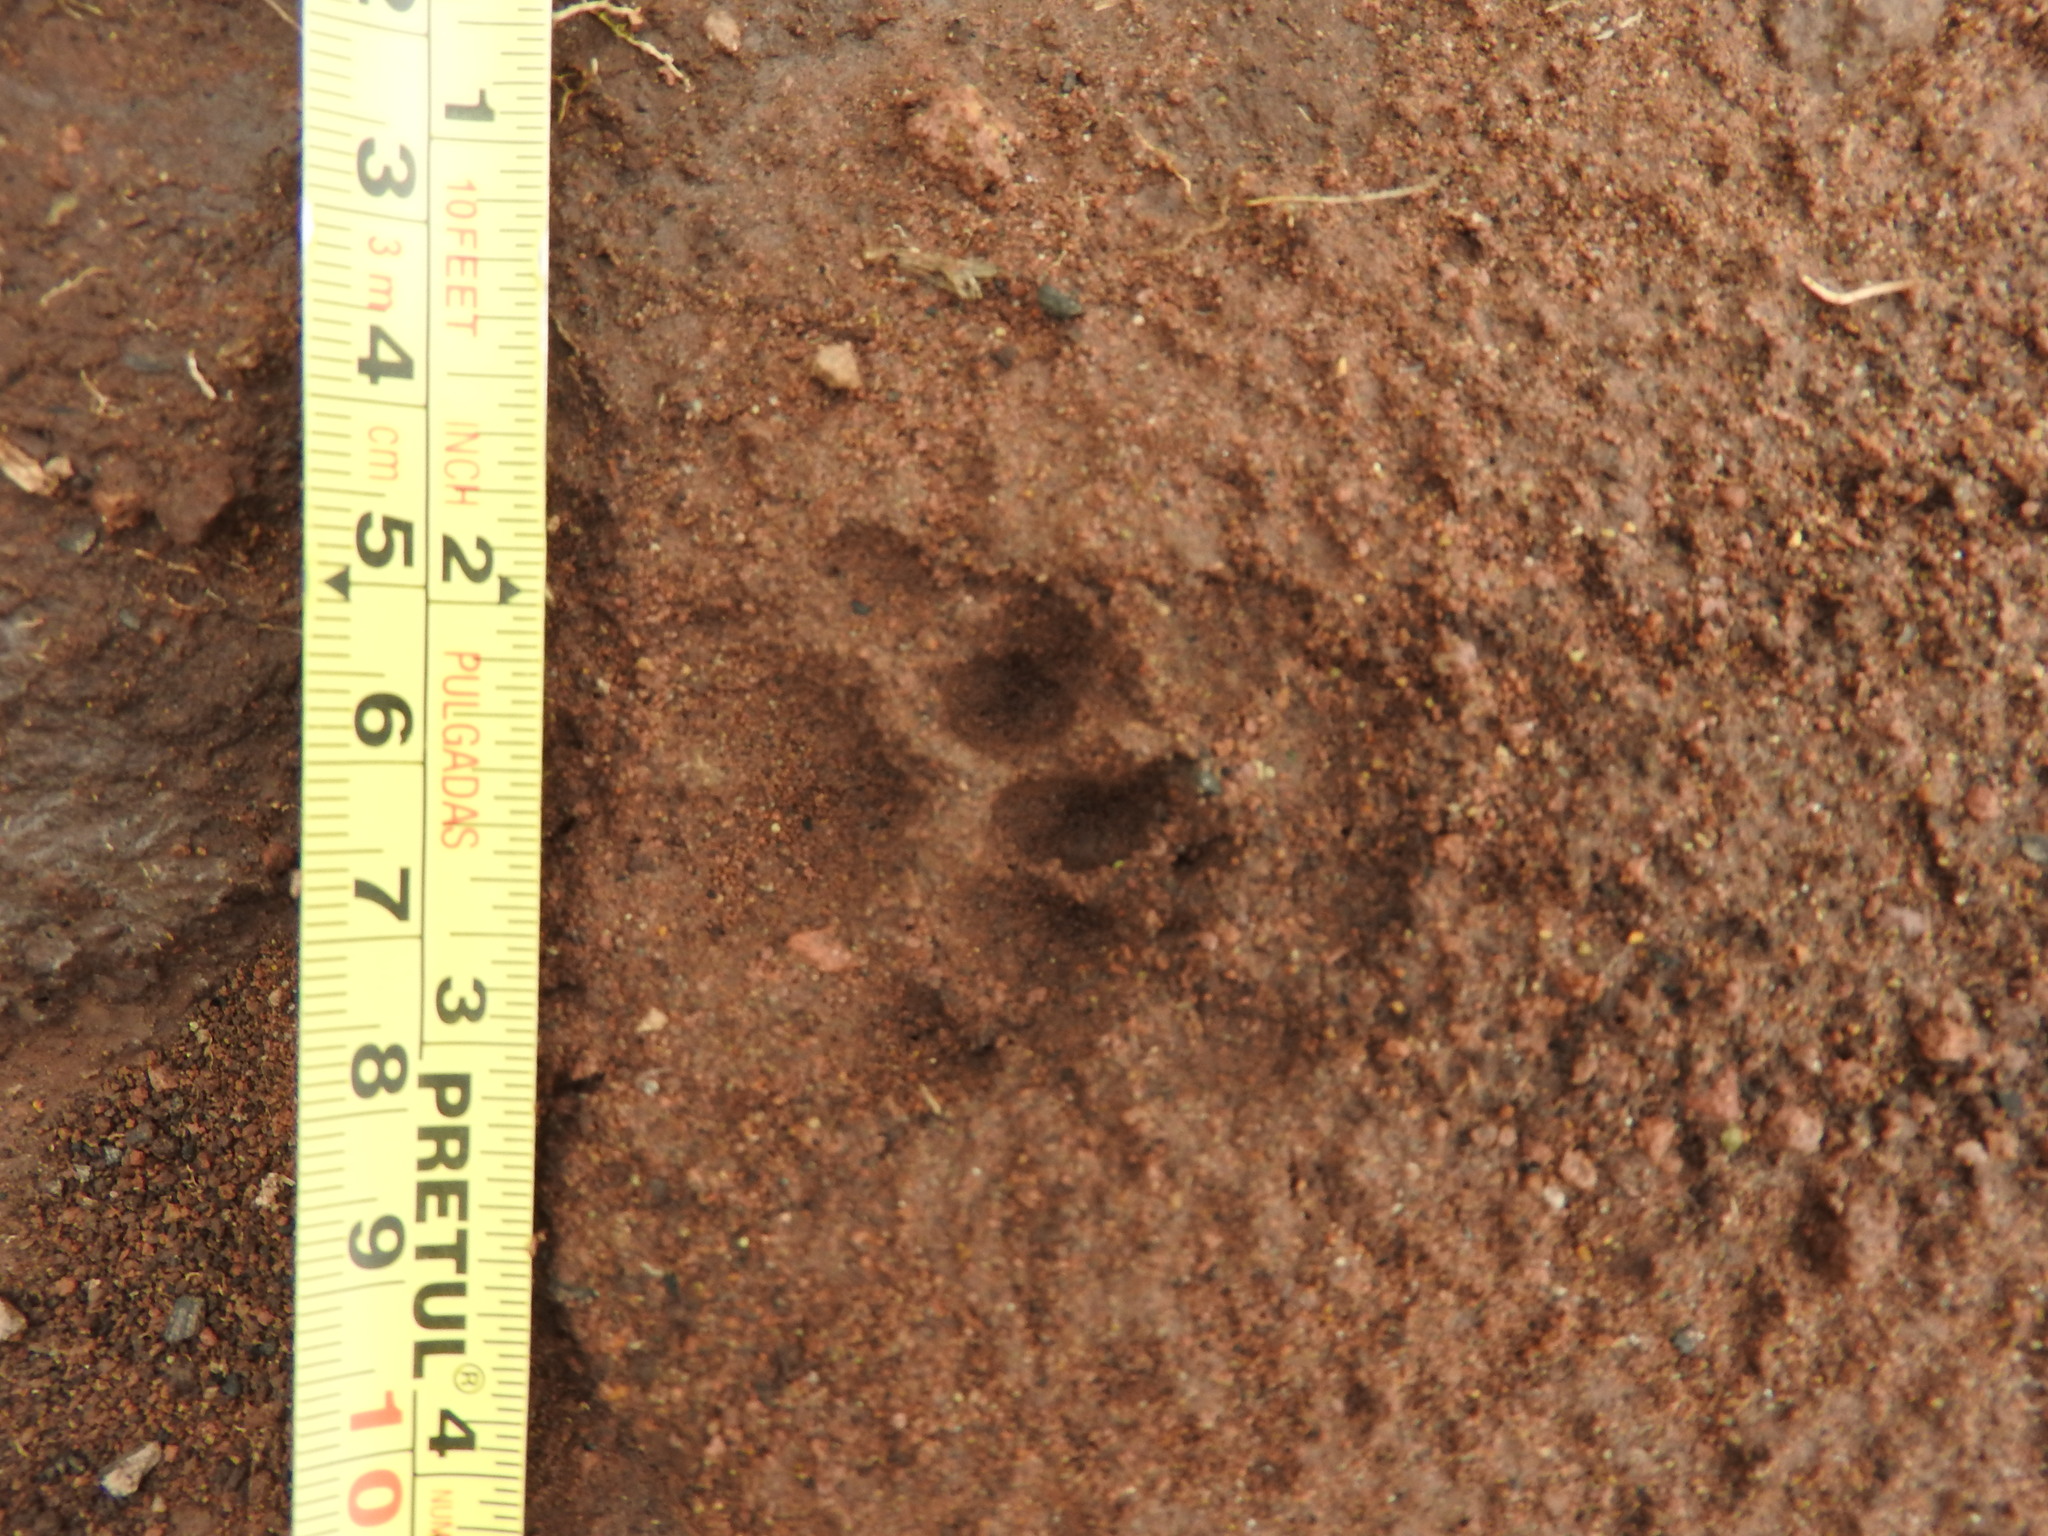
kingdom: Animalia
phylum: Chordata
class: Mammalia
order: Carnivora
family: Procyonidae
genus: Bassariscus
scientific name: Bassariscus astutus
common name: Ringtail
